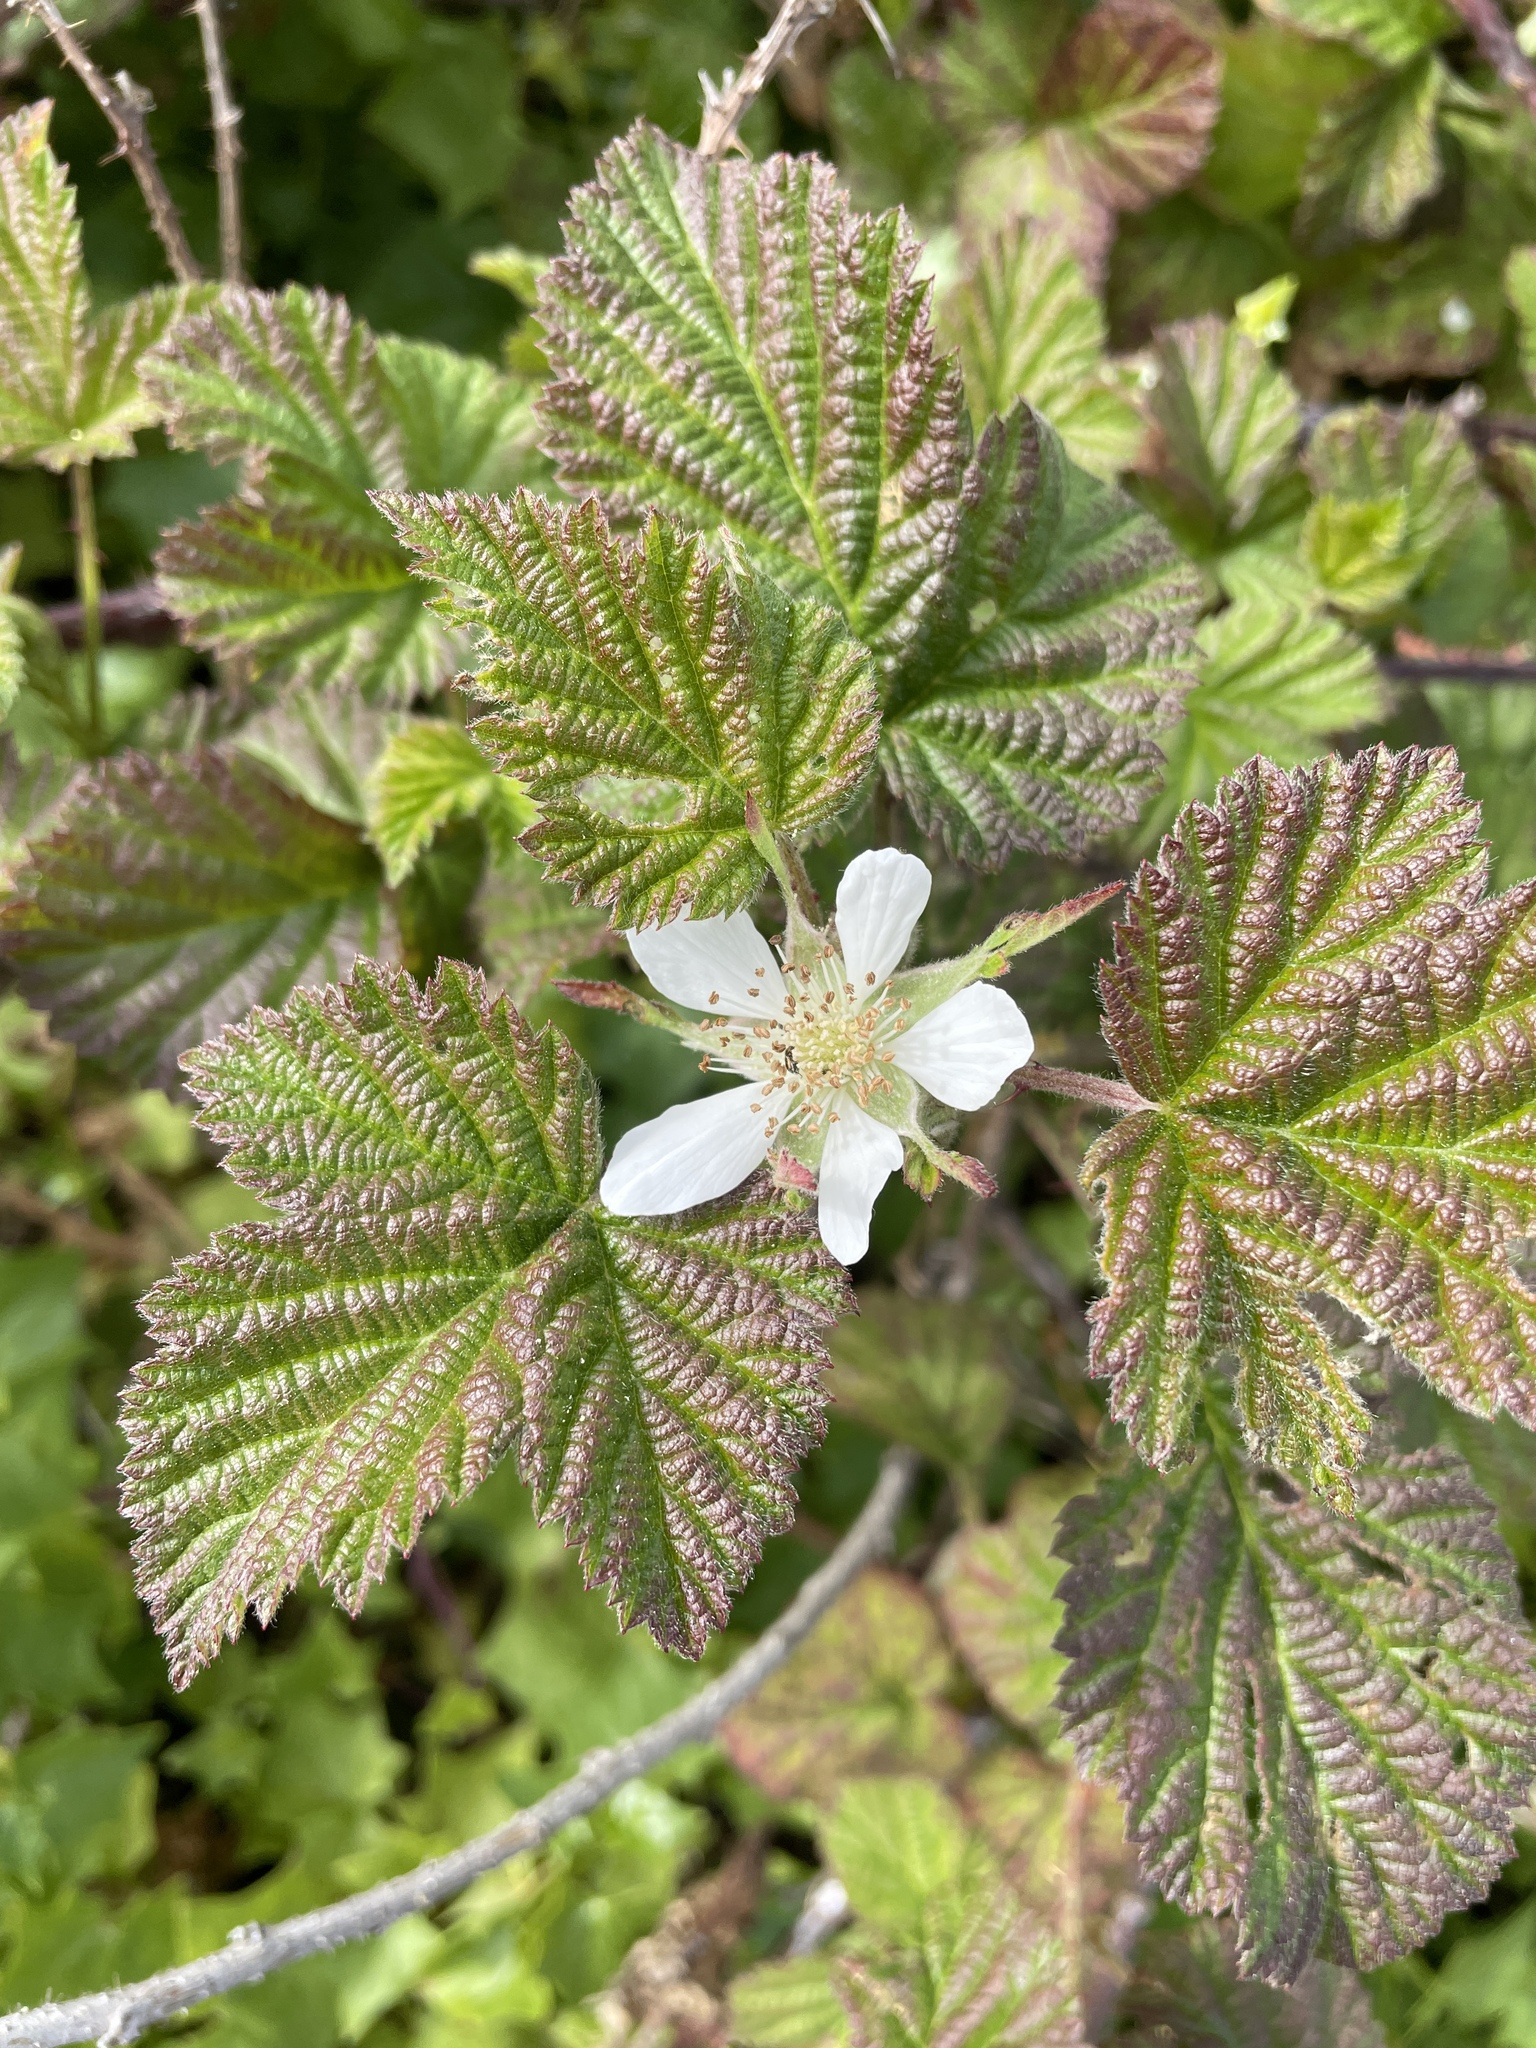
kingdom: Plantae
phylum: Tracheophyta
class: Magnoliopsida
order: Rosales
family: Rosaceae
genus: Rubus
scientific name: Rubus ursinus
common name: Pacific blackberry
